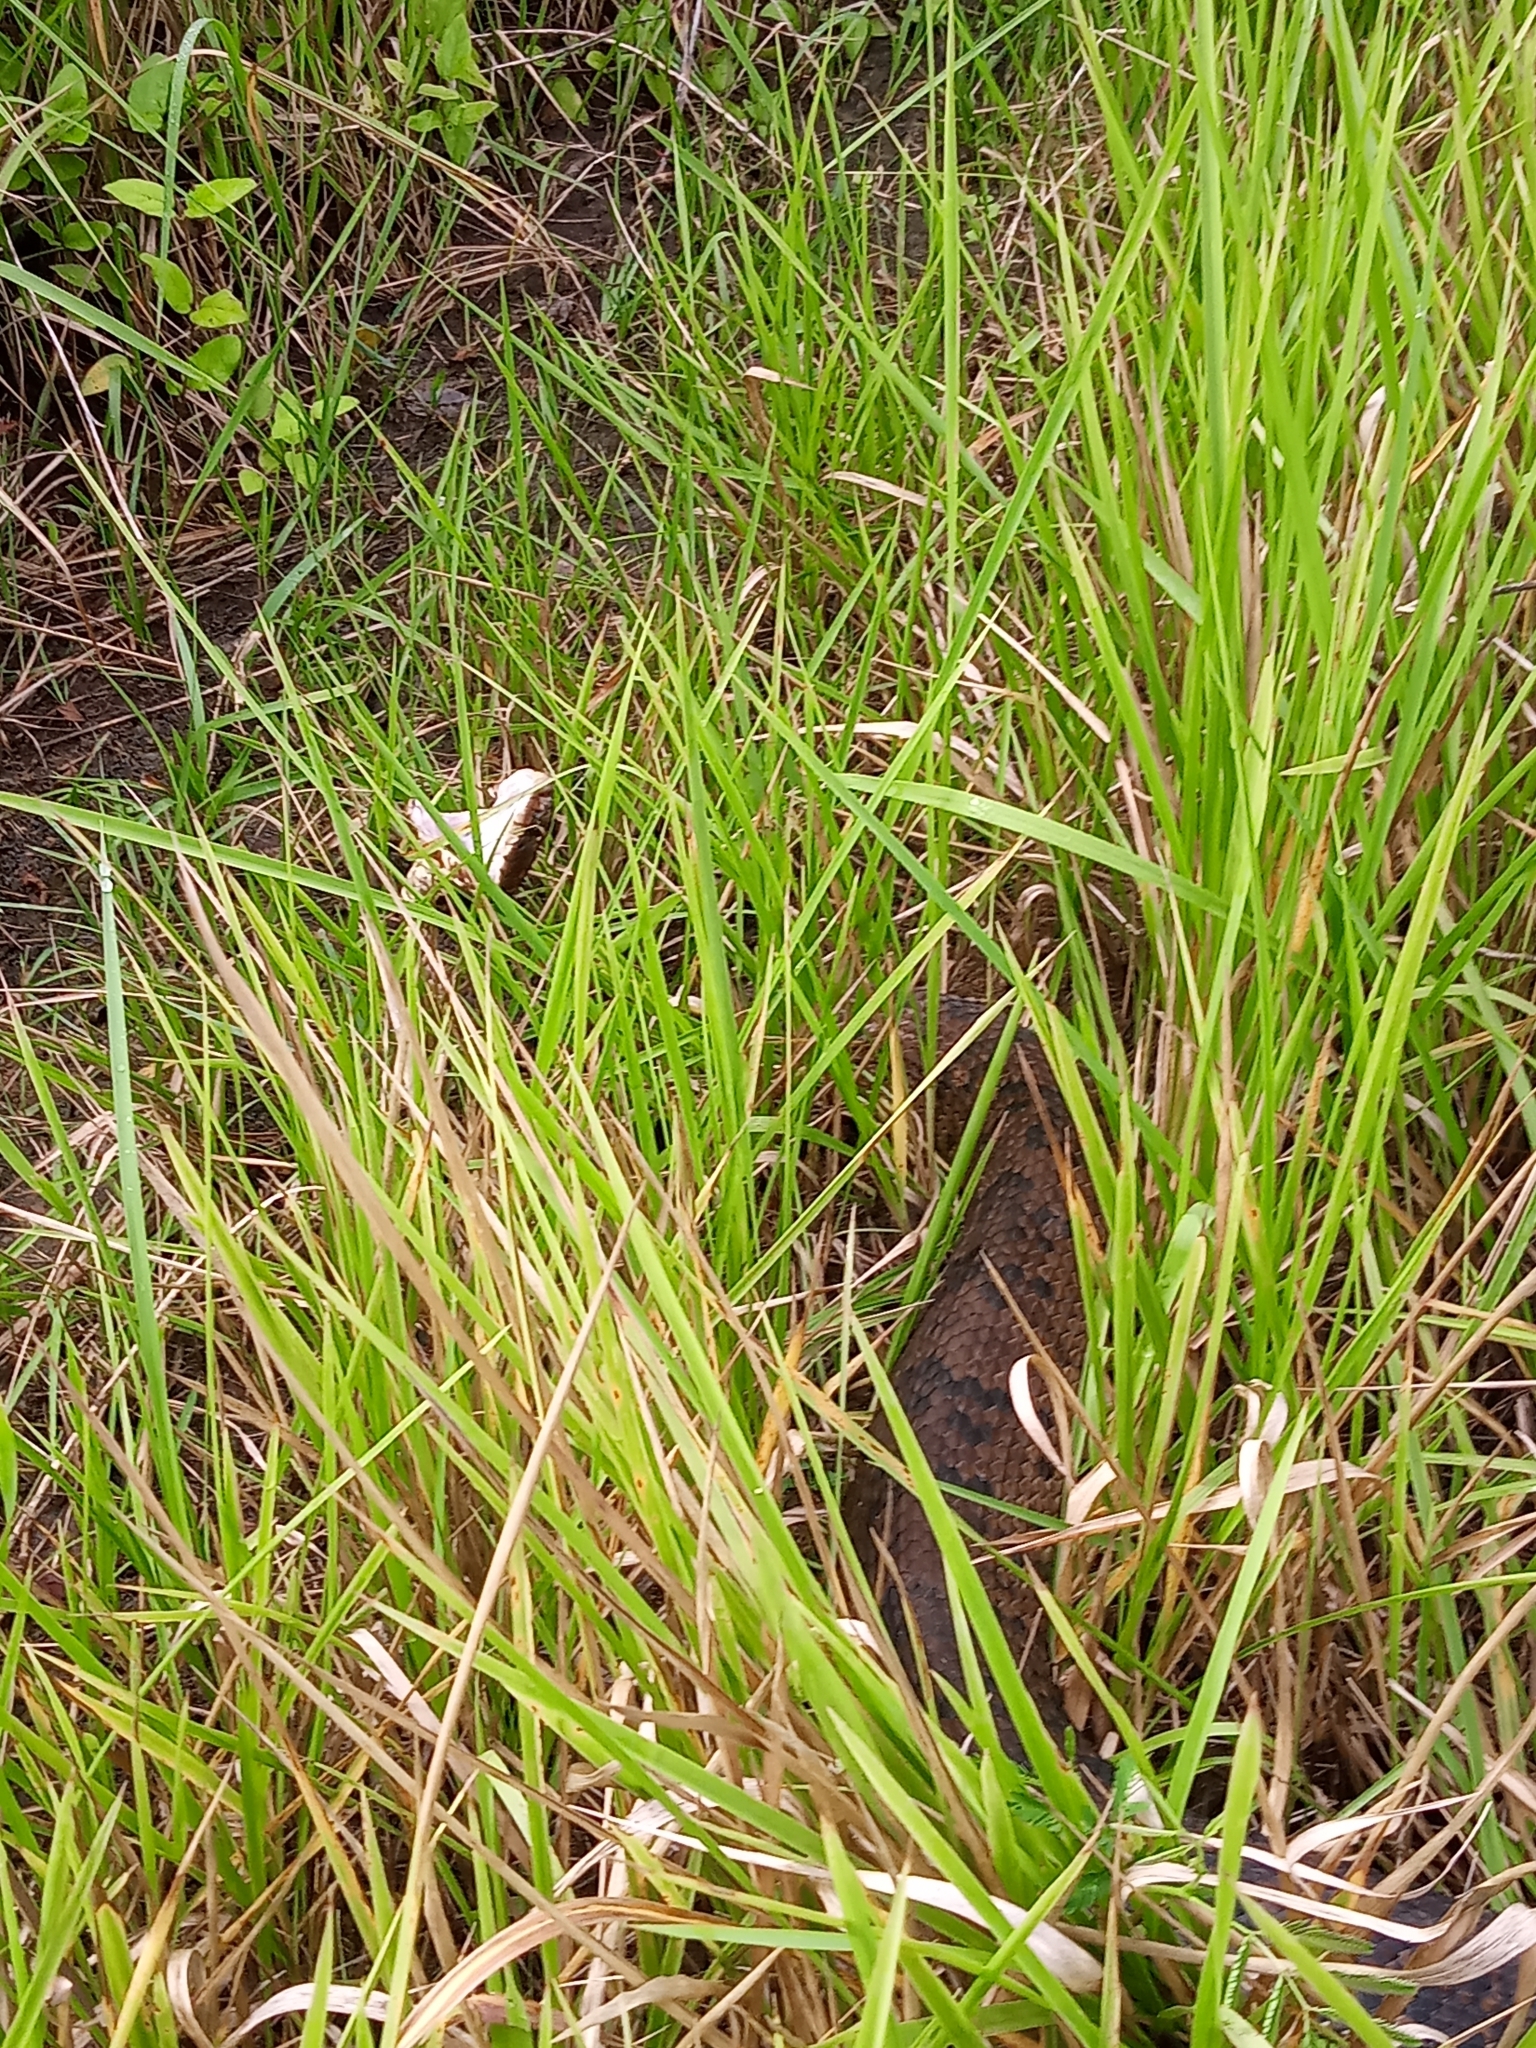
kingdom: Animalia
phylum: Chordata
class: Squamata
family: Viperidae
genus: Agkistrodon
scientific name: Agkistrodon piscivorus
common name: Cottonmouth
